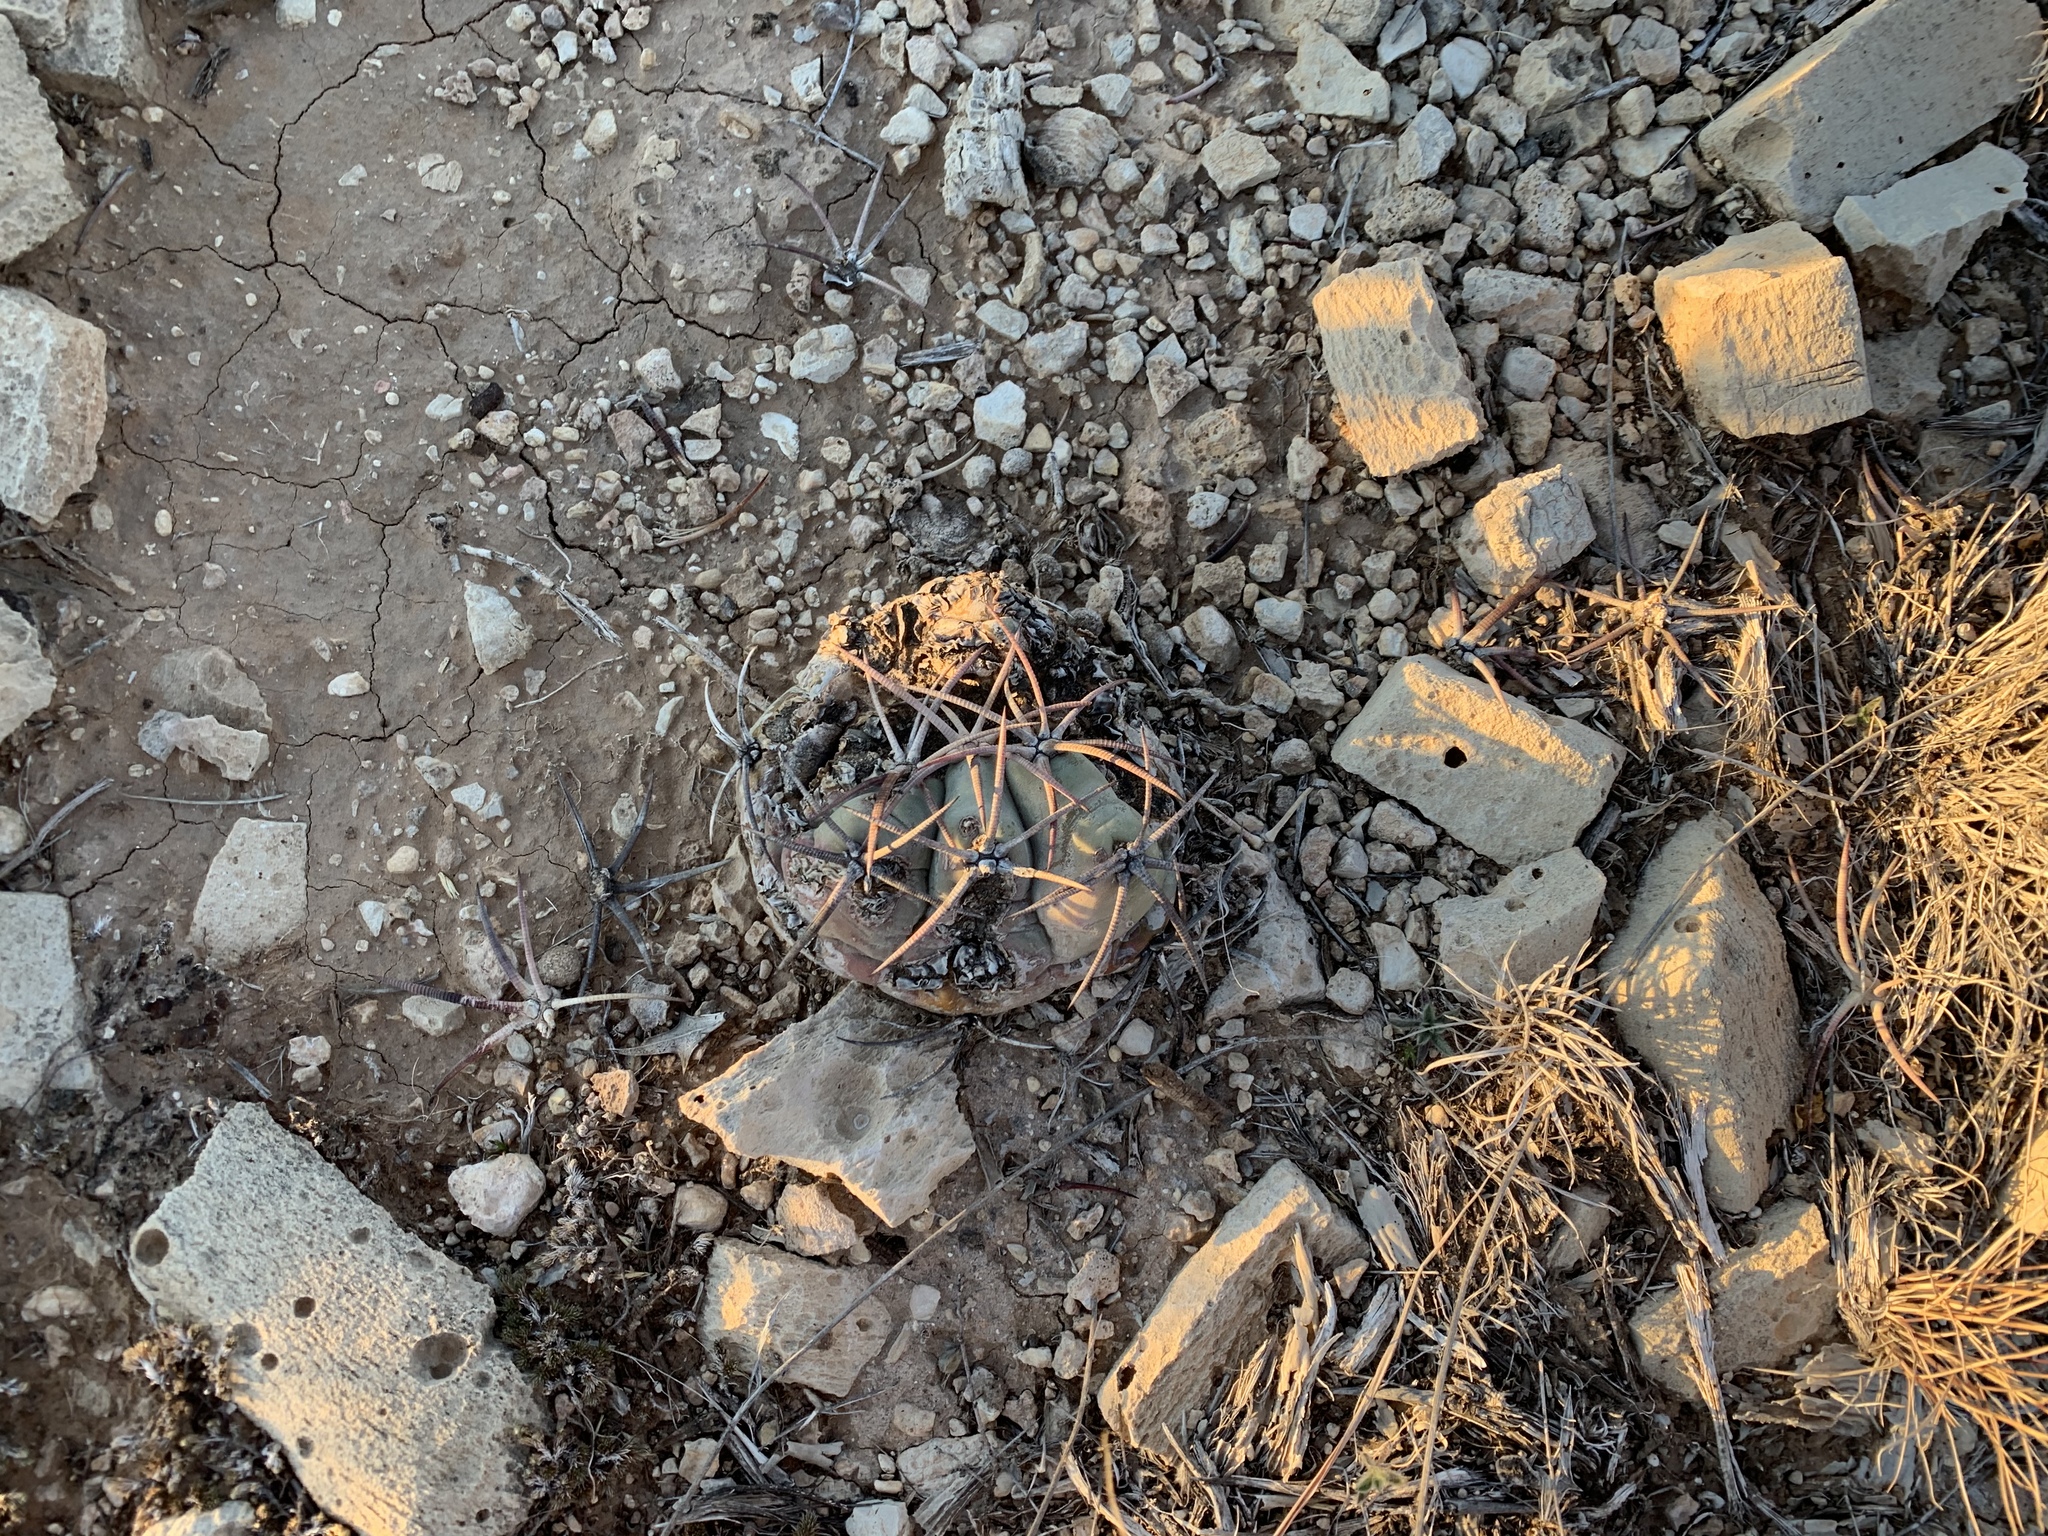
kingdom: Plantae
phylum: Tracheophyta
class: Magnoliopsida
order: Caryophyllales
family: Cactaceae
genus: Echinocactus
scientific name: Echinocactus horizonthalonius
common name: Devilshead
